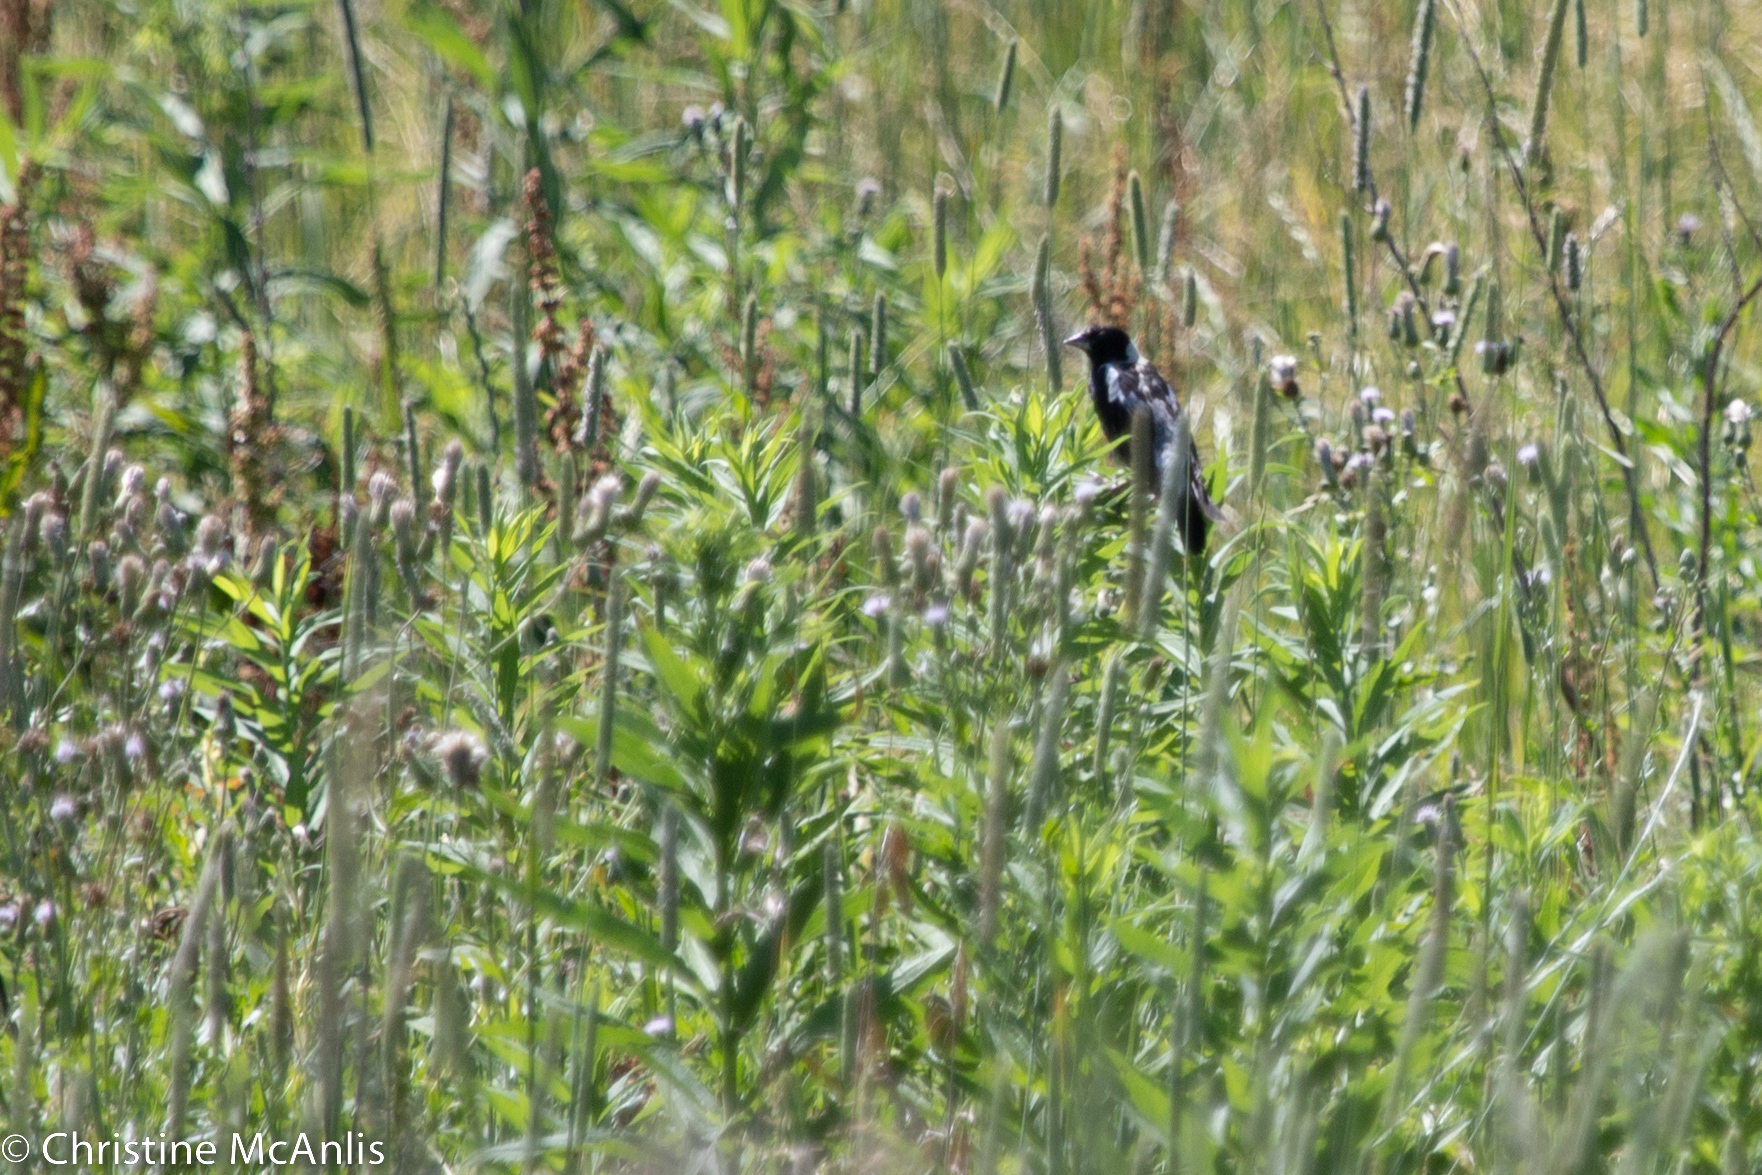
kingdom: Animalia
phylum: Chordata
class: Aves
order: Passeriformes
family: Icteridae
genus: Dolichonyx
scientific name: Dolichonyx oryzivorus
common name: Bobolink
